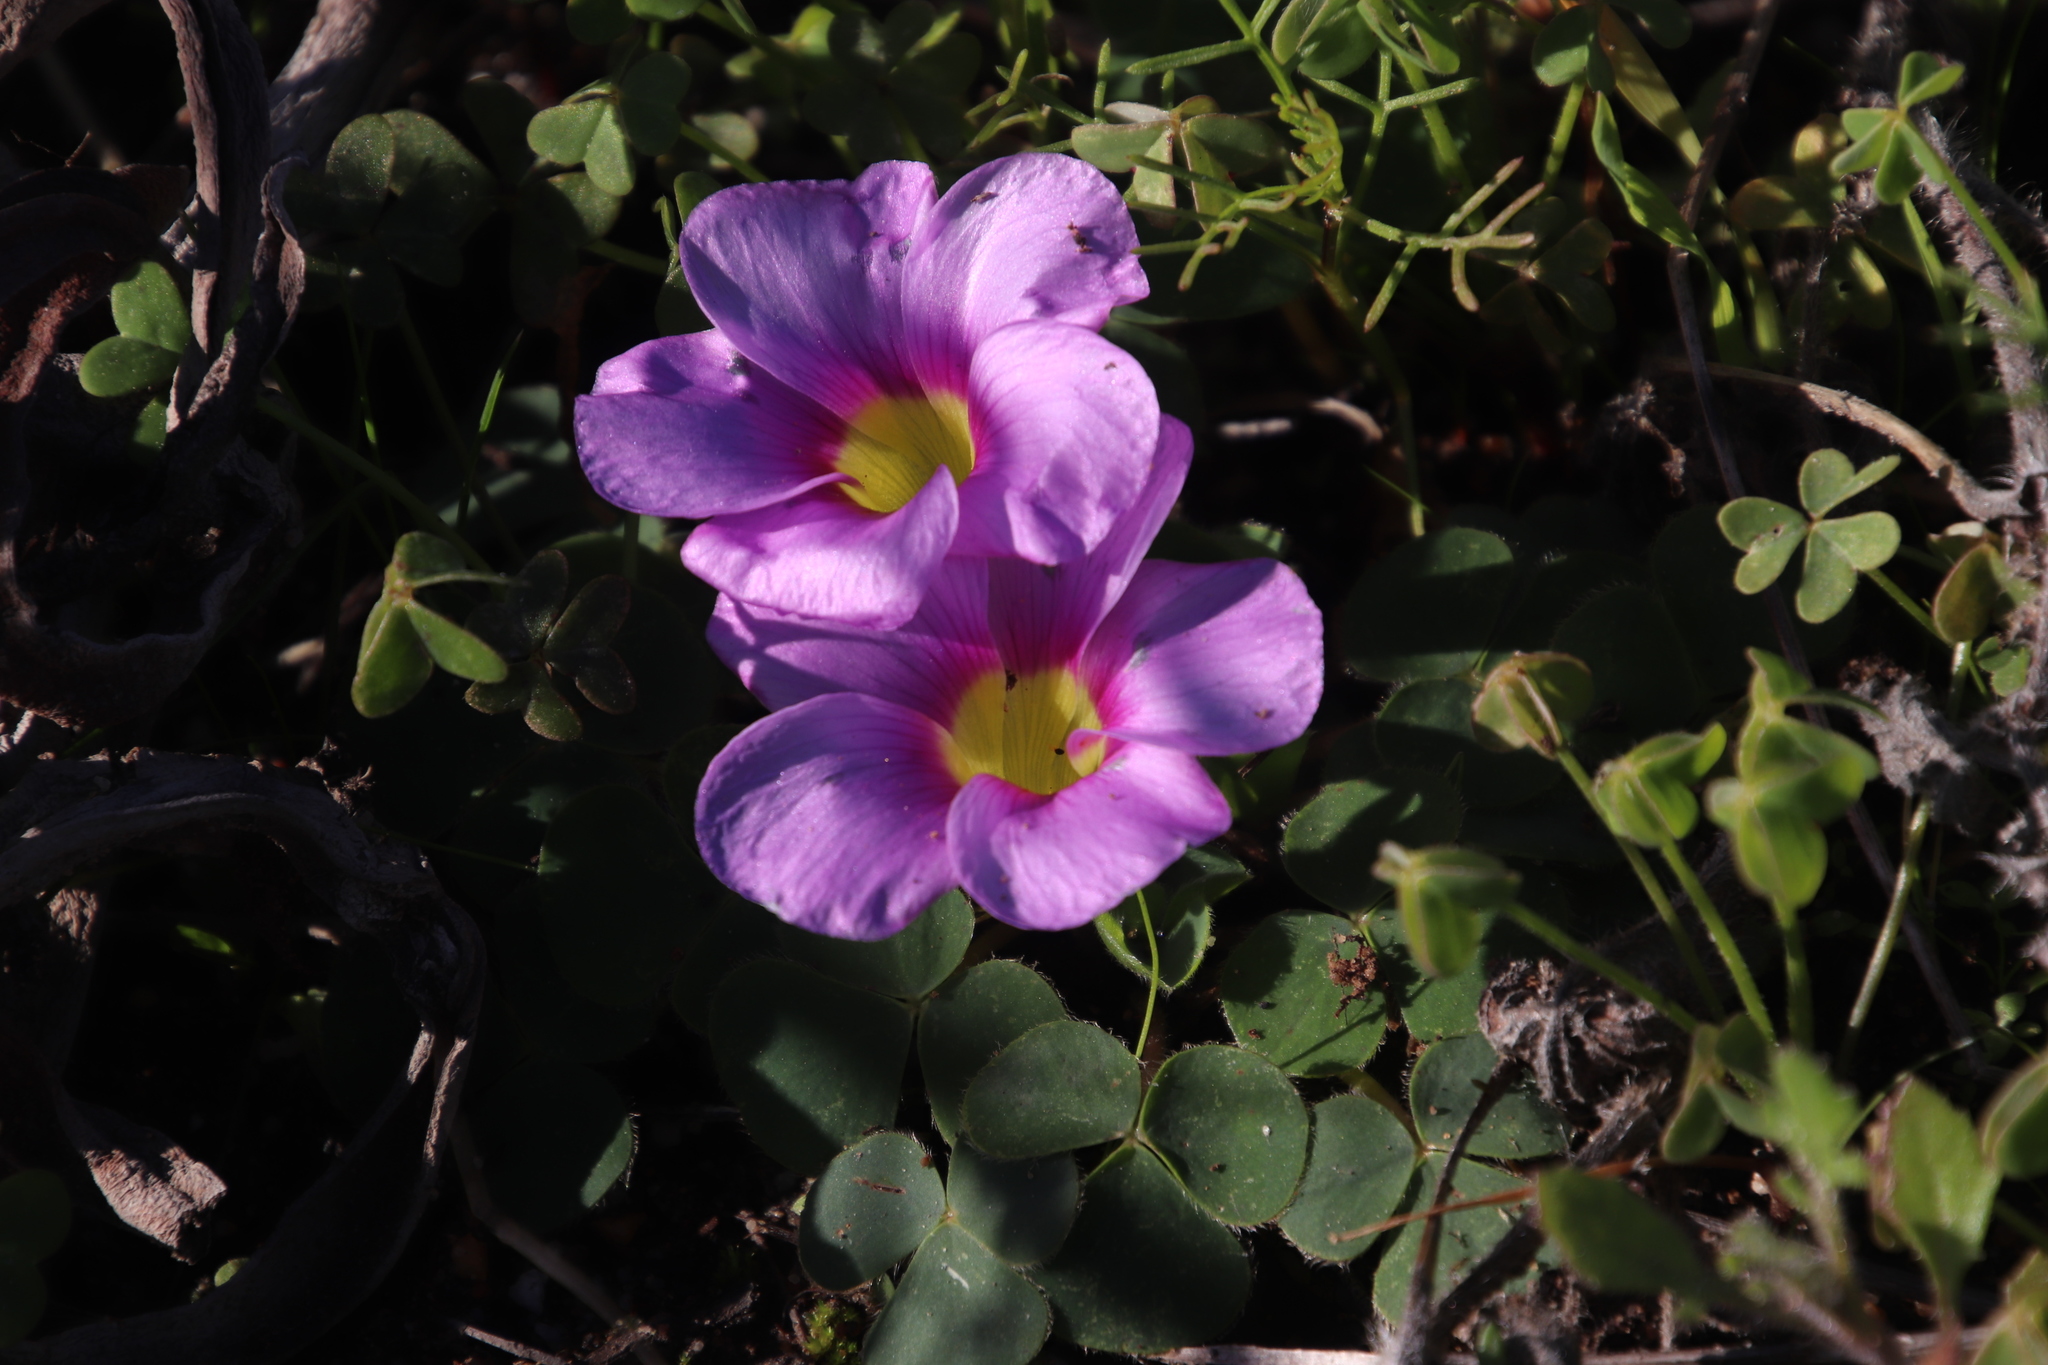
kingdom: Plantae
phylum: Tracheophyta
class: Magnoliopsida
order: Oxalidales
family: Oxalidaceae
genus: Oxalis
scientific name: Oxalis purpurea
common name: Purple woodsorrel
